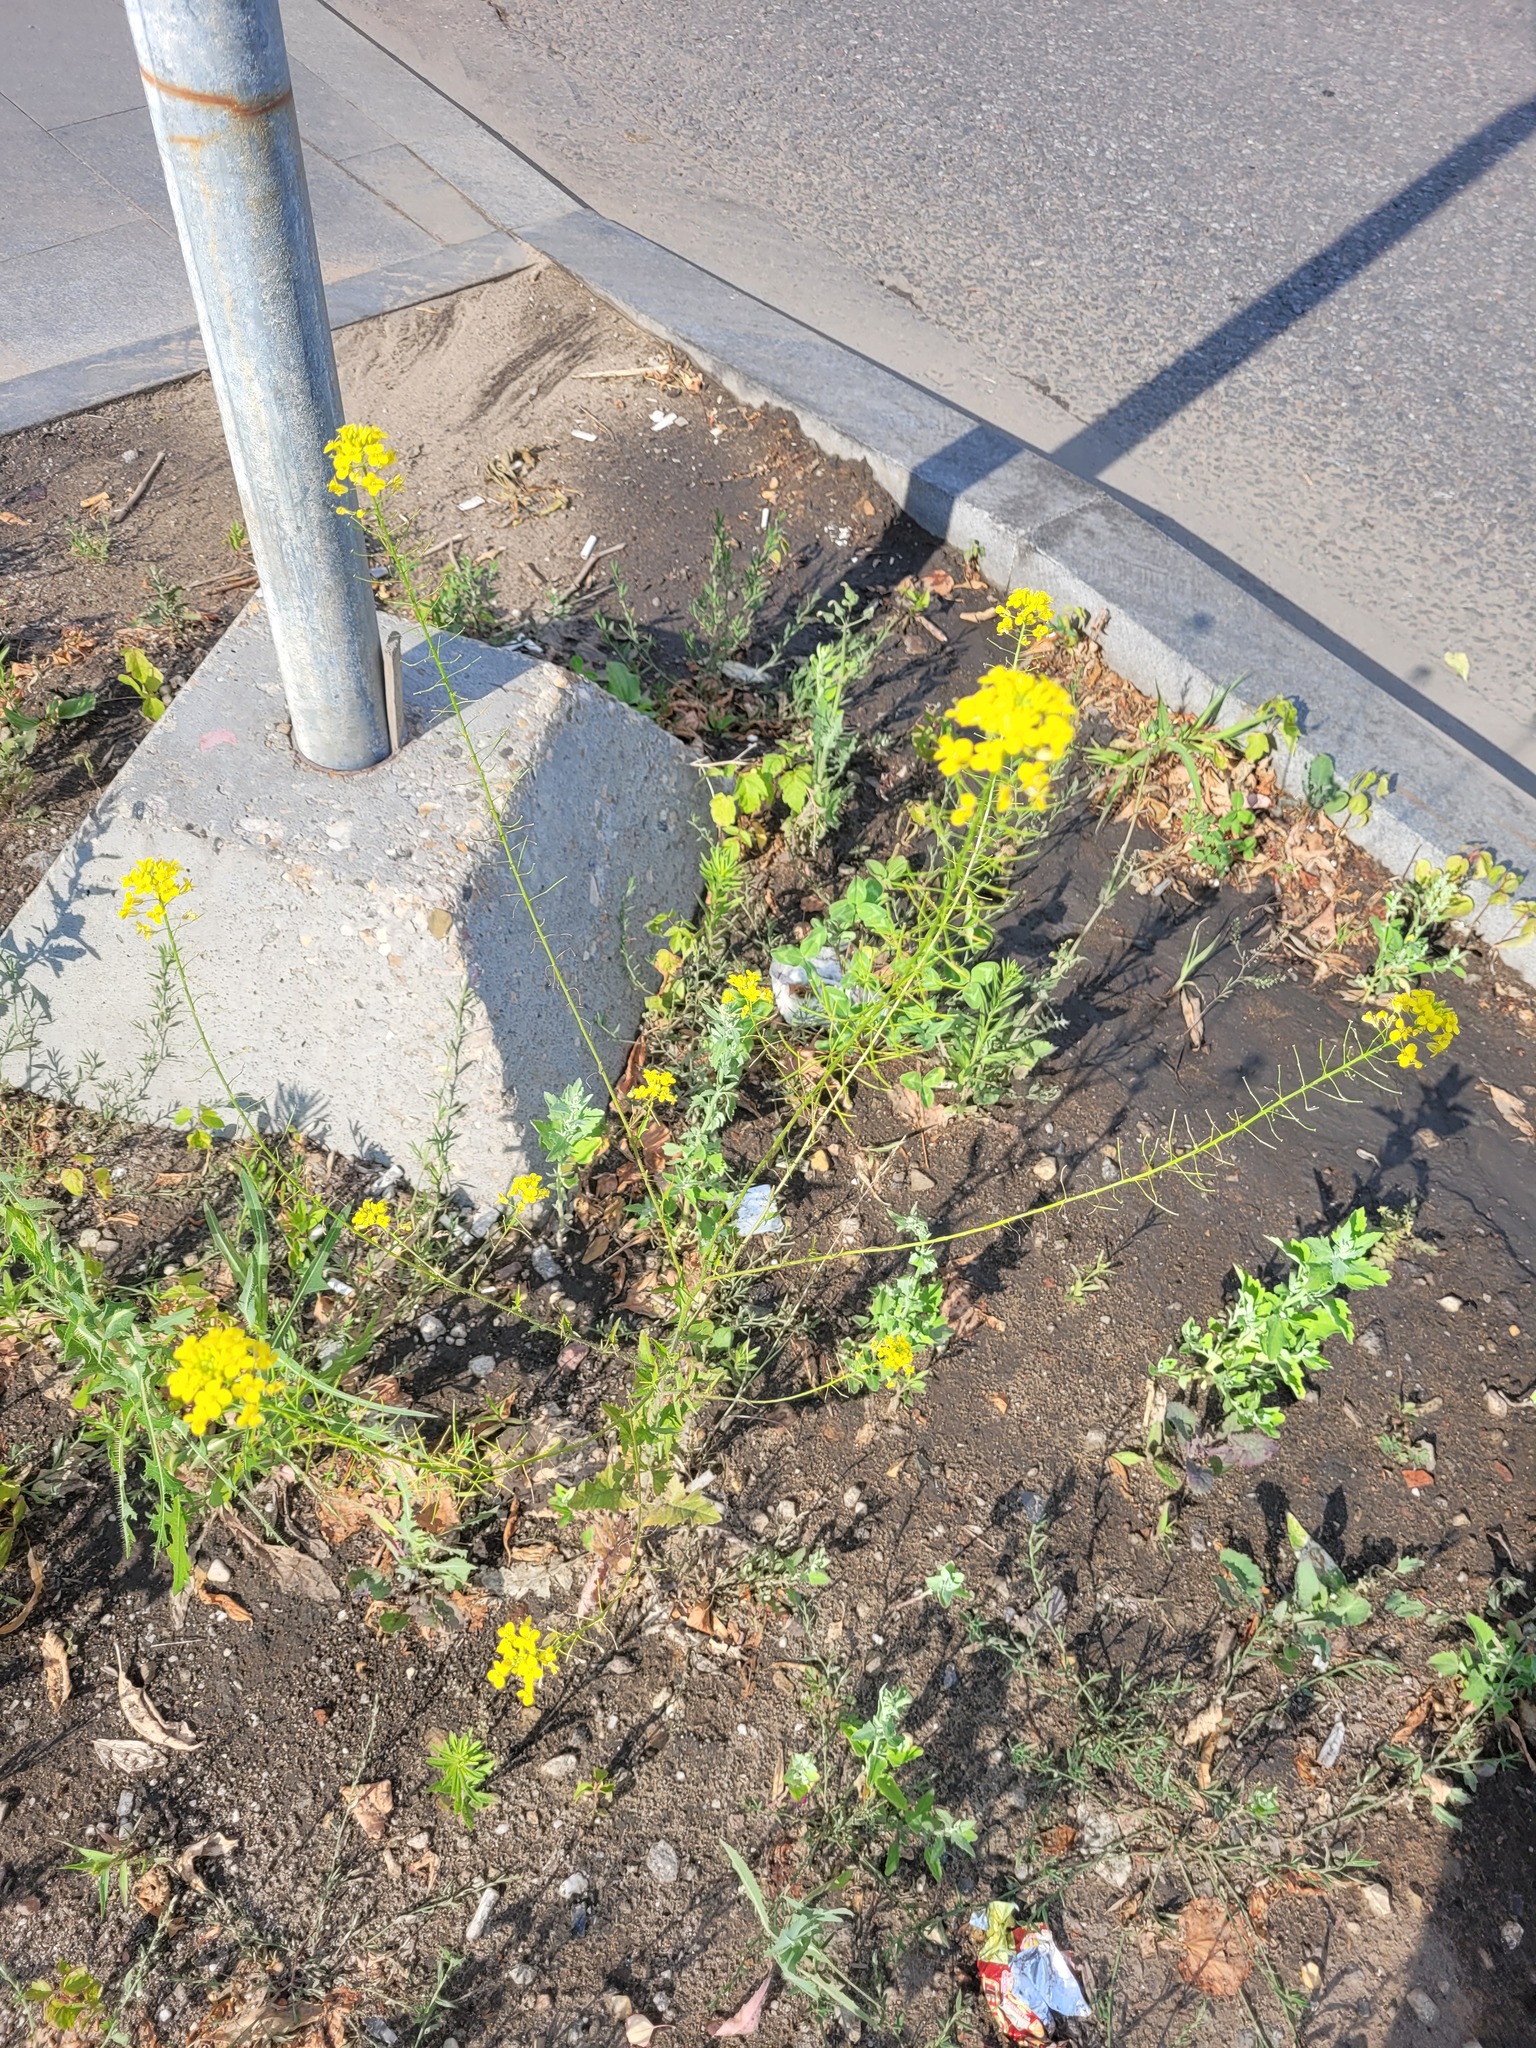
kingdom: Plantae
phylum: Tracheophyta
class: Magnoliopsida
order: Brassicales
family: Brassicaceae
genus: Sisymbrium
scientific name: Sisymbrium loeselii
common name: False london-rocket
